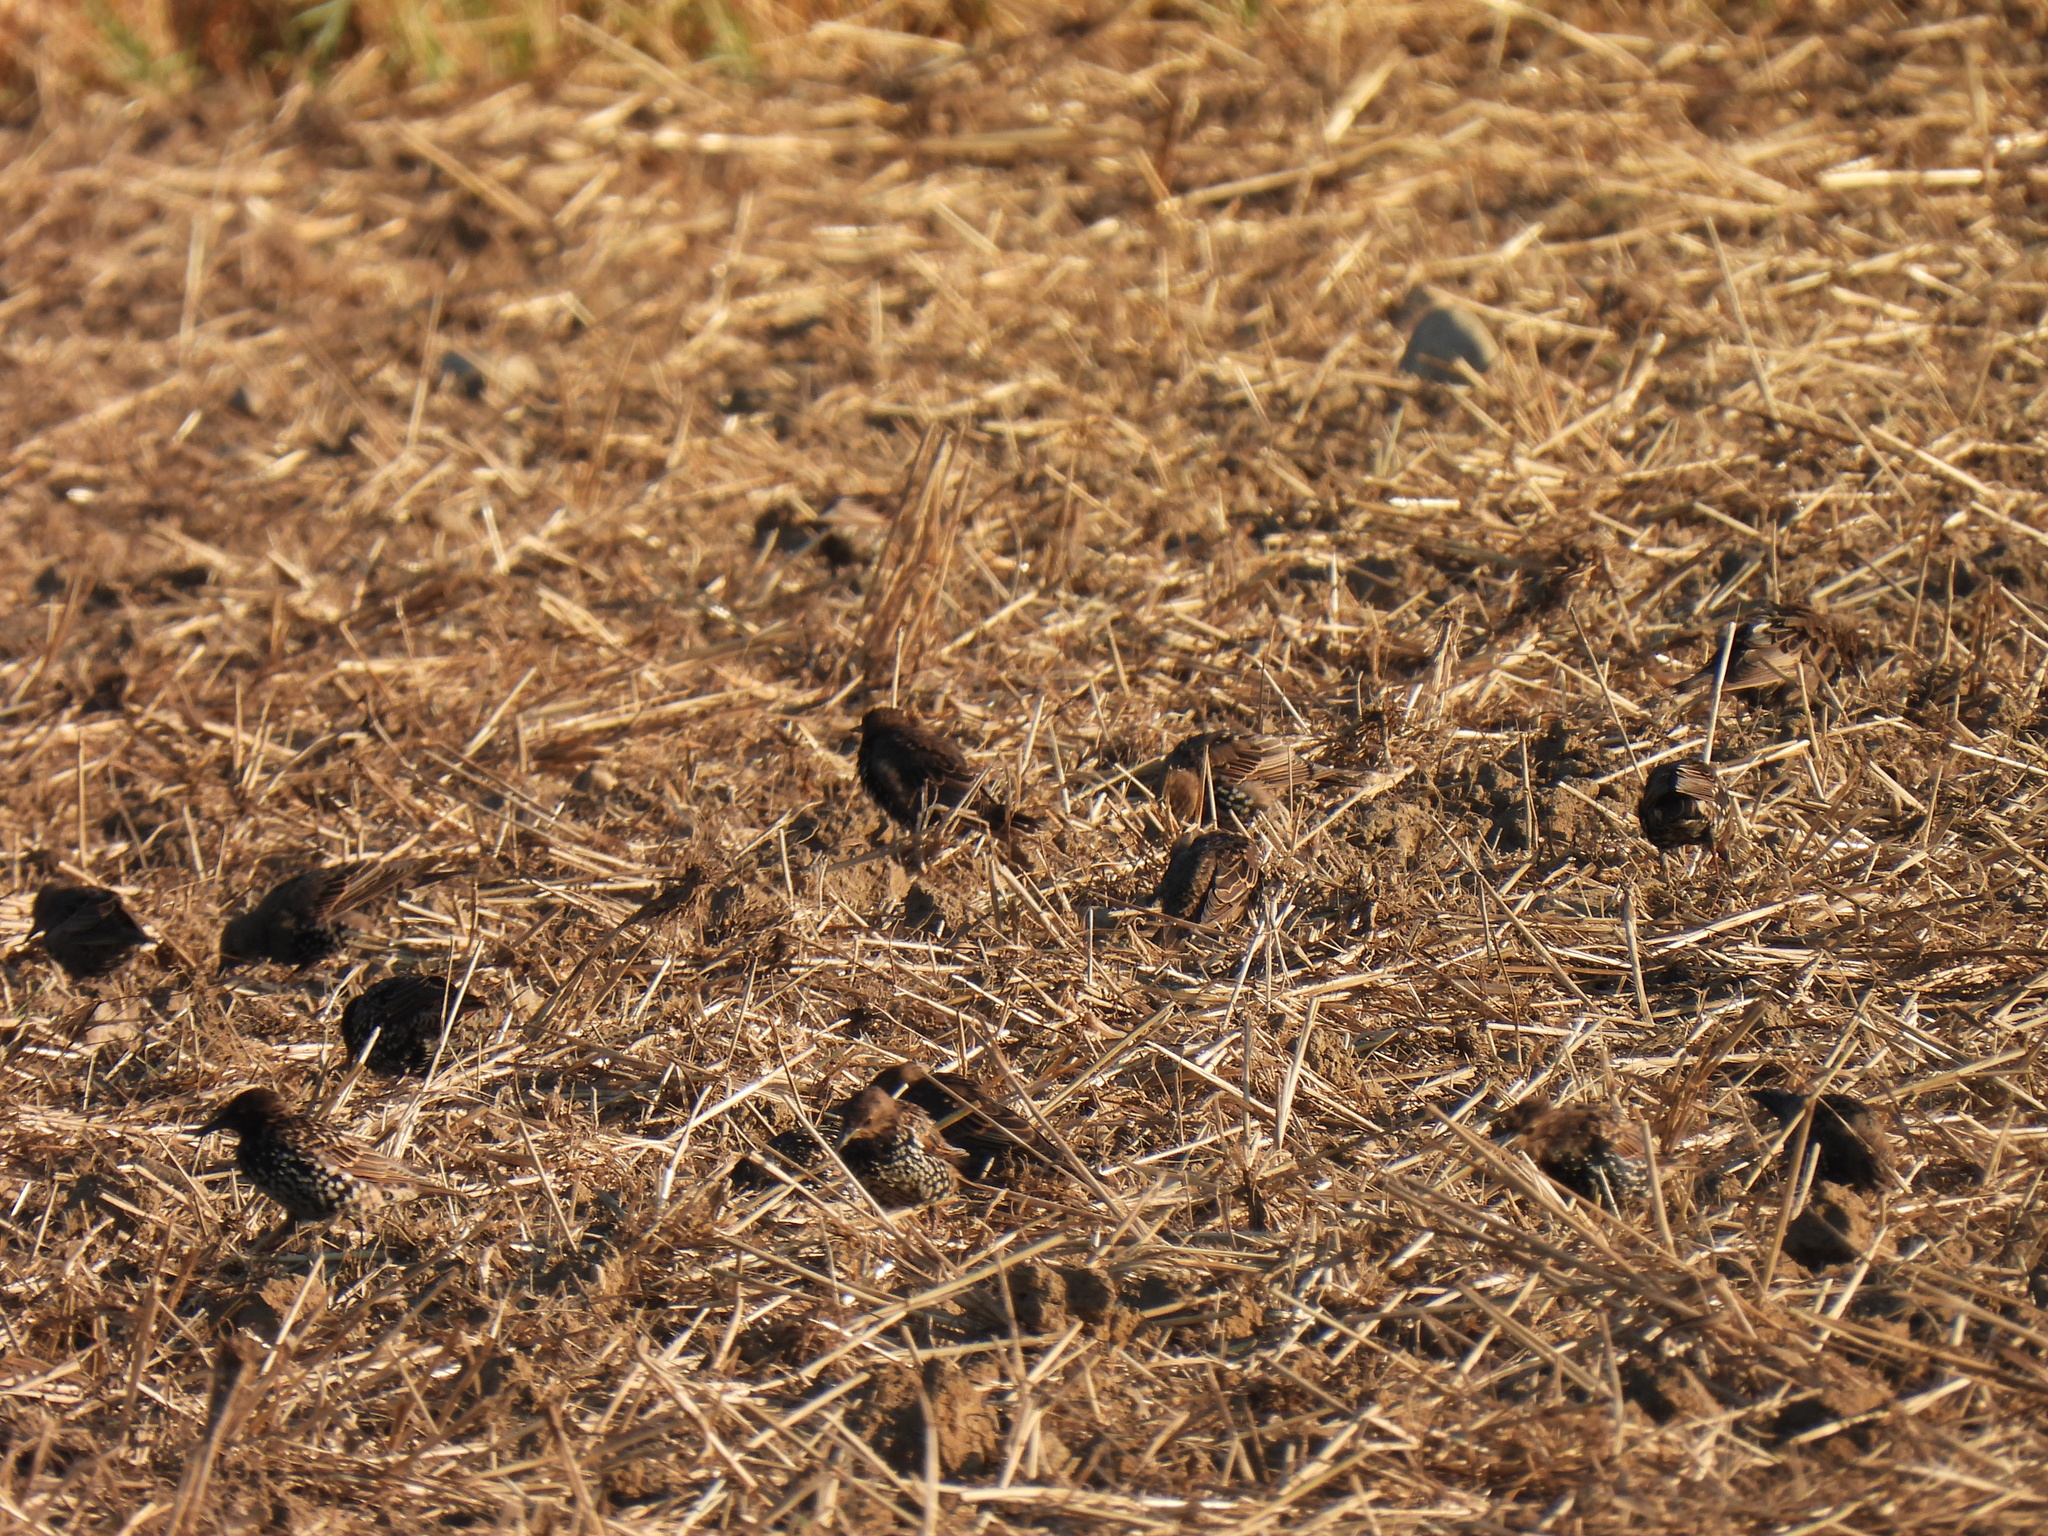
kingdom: Animalia
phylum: Chordata
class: Aves
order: Passeriformes
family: Sturnidae
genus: Sturnus
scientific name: Sturnus vulgaris
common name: Common starling
